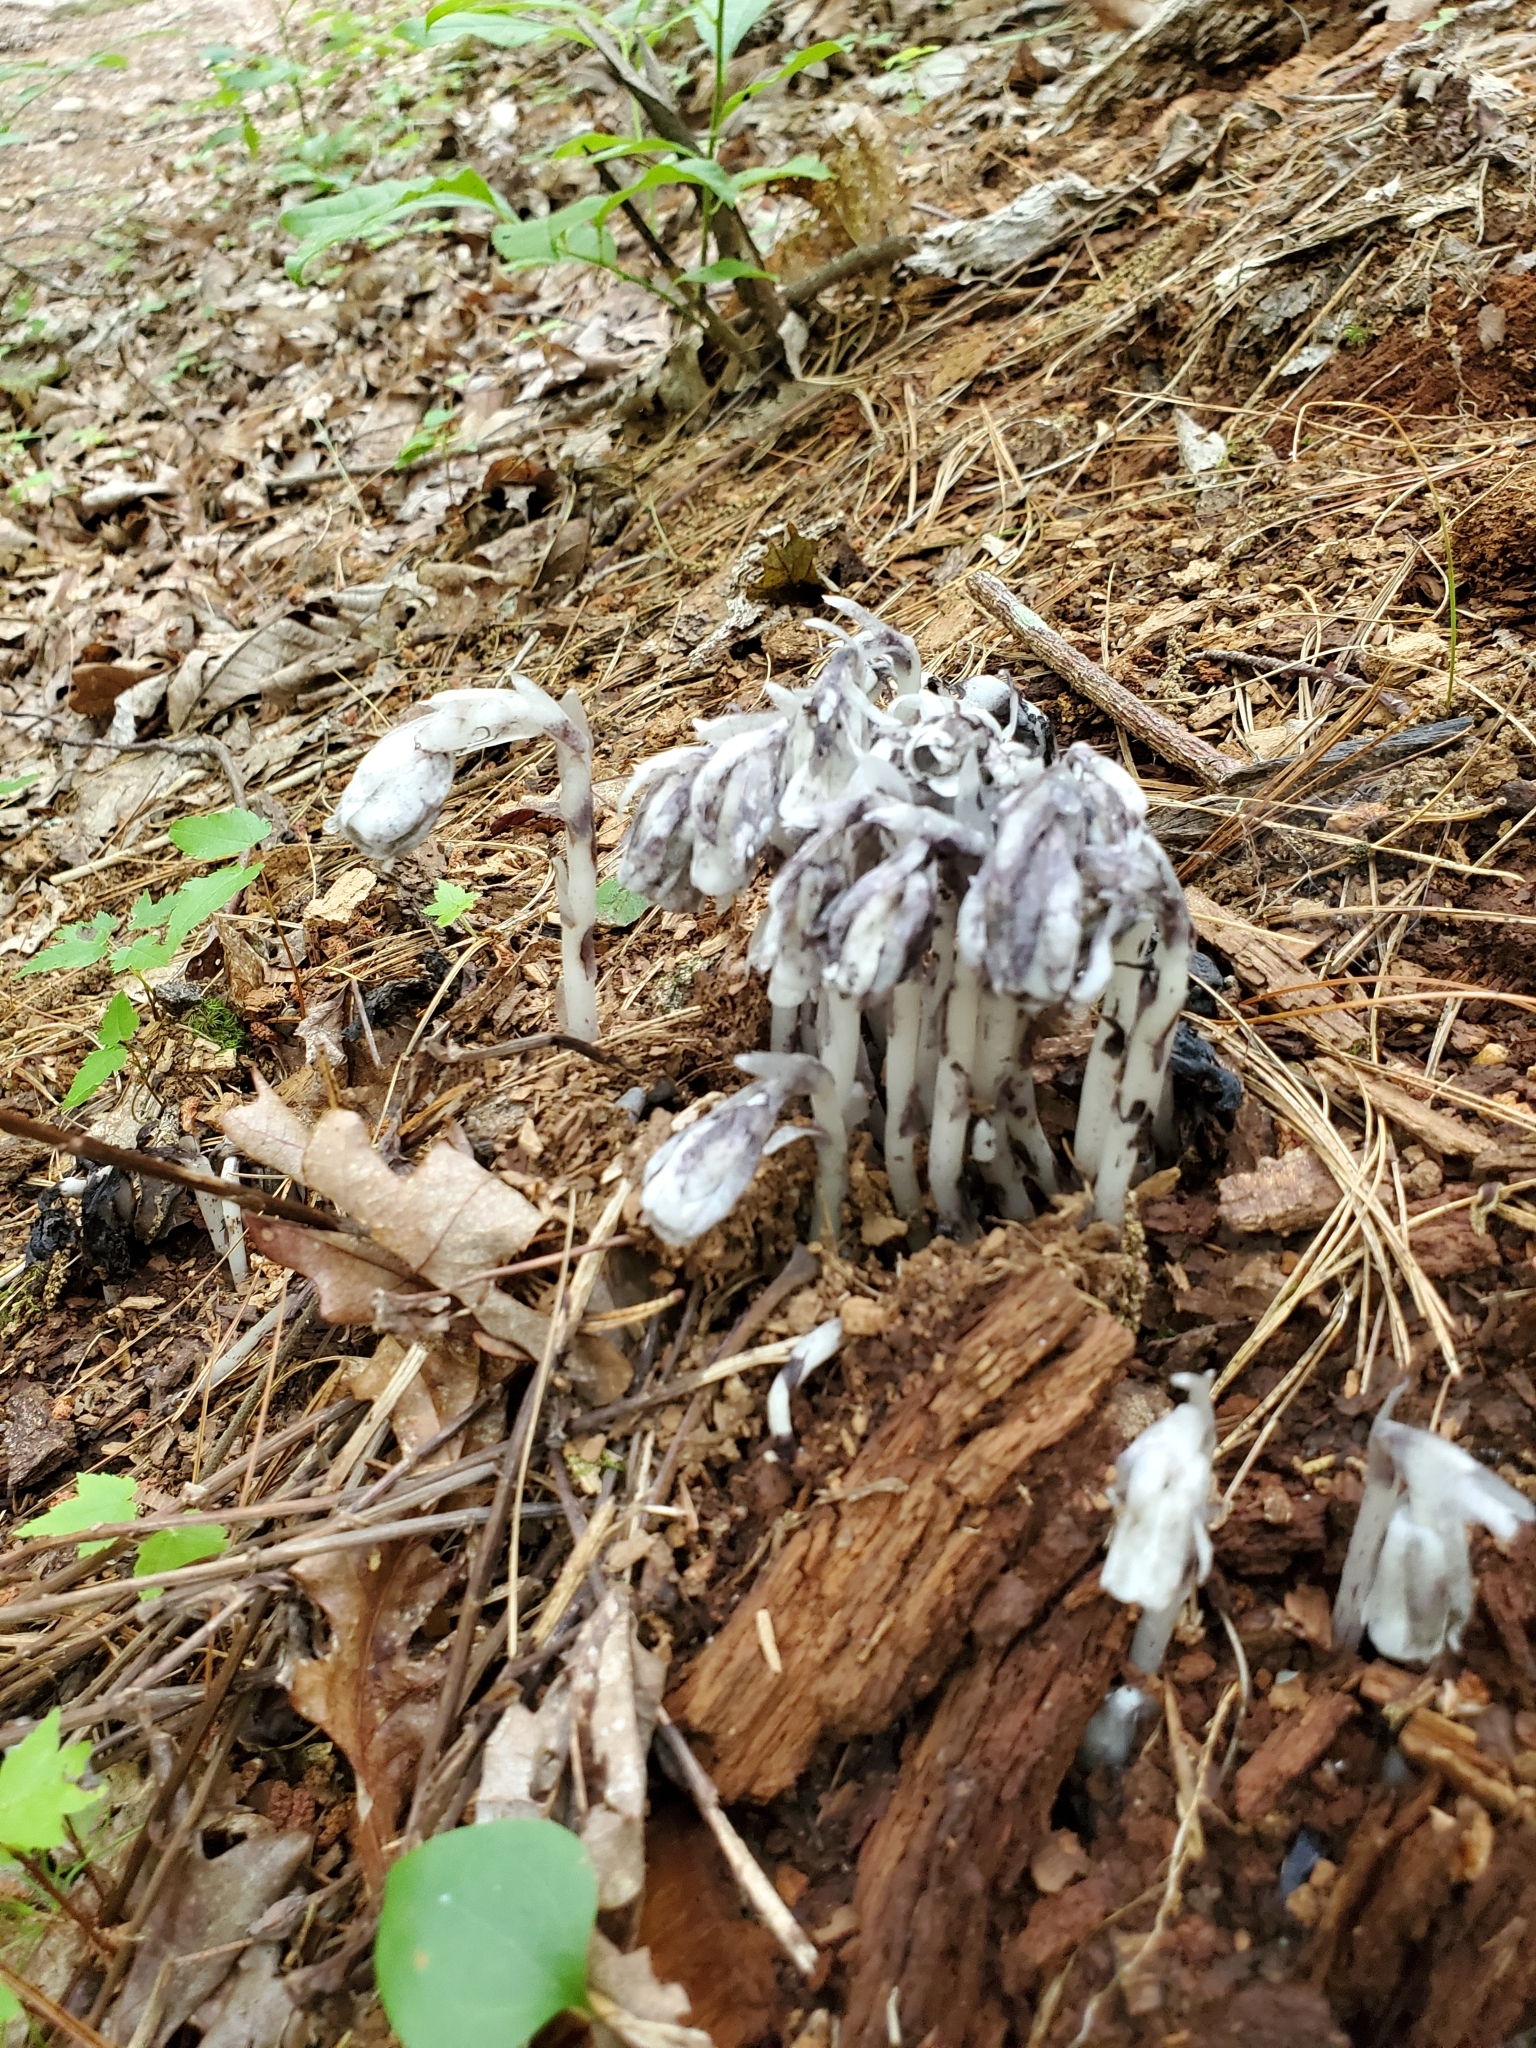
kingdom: Plantae
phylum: Tracheophyta
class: Magnoliopsida
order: Ericales
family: Ericaceae
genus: Monotropa
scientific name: Monotropa uniflora
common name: Convulsion root
